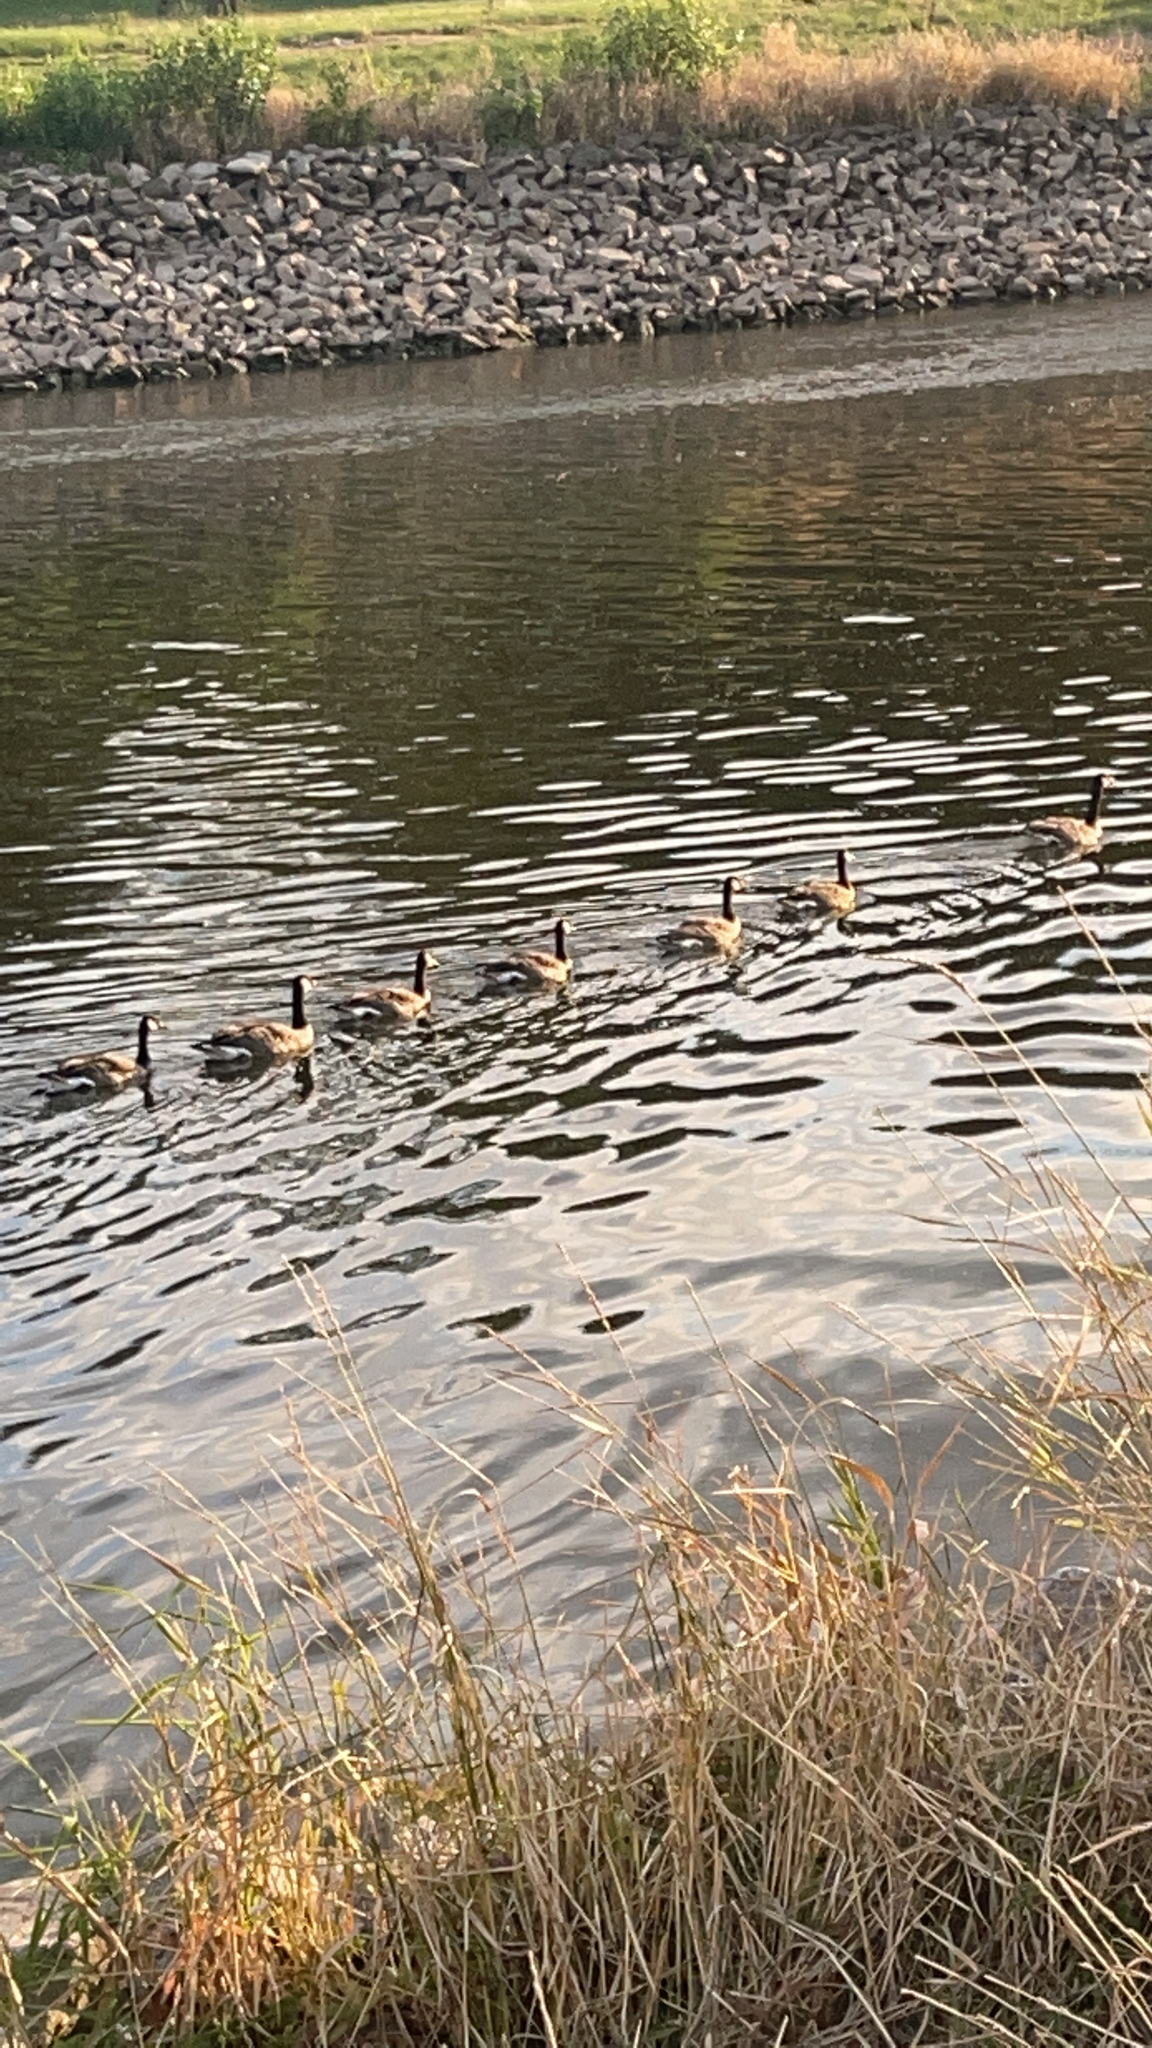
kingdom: Animalia
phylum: Chordata
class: Aves
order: Anseriformes
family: Anatidae
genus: Branta
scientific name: Branta canadensis
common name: Canada goose
